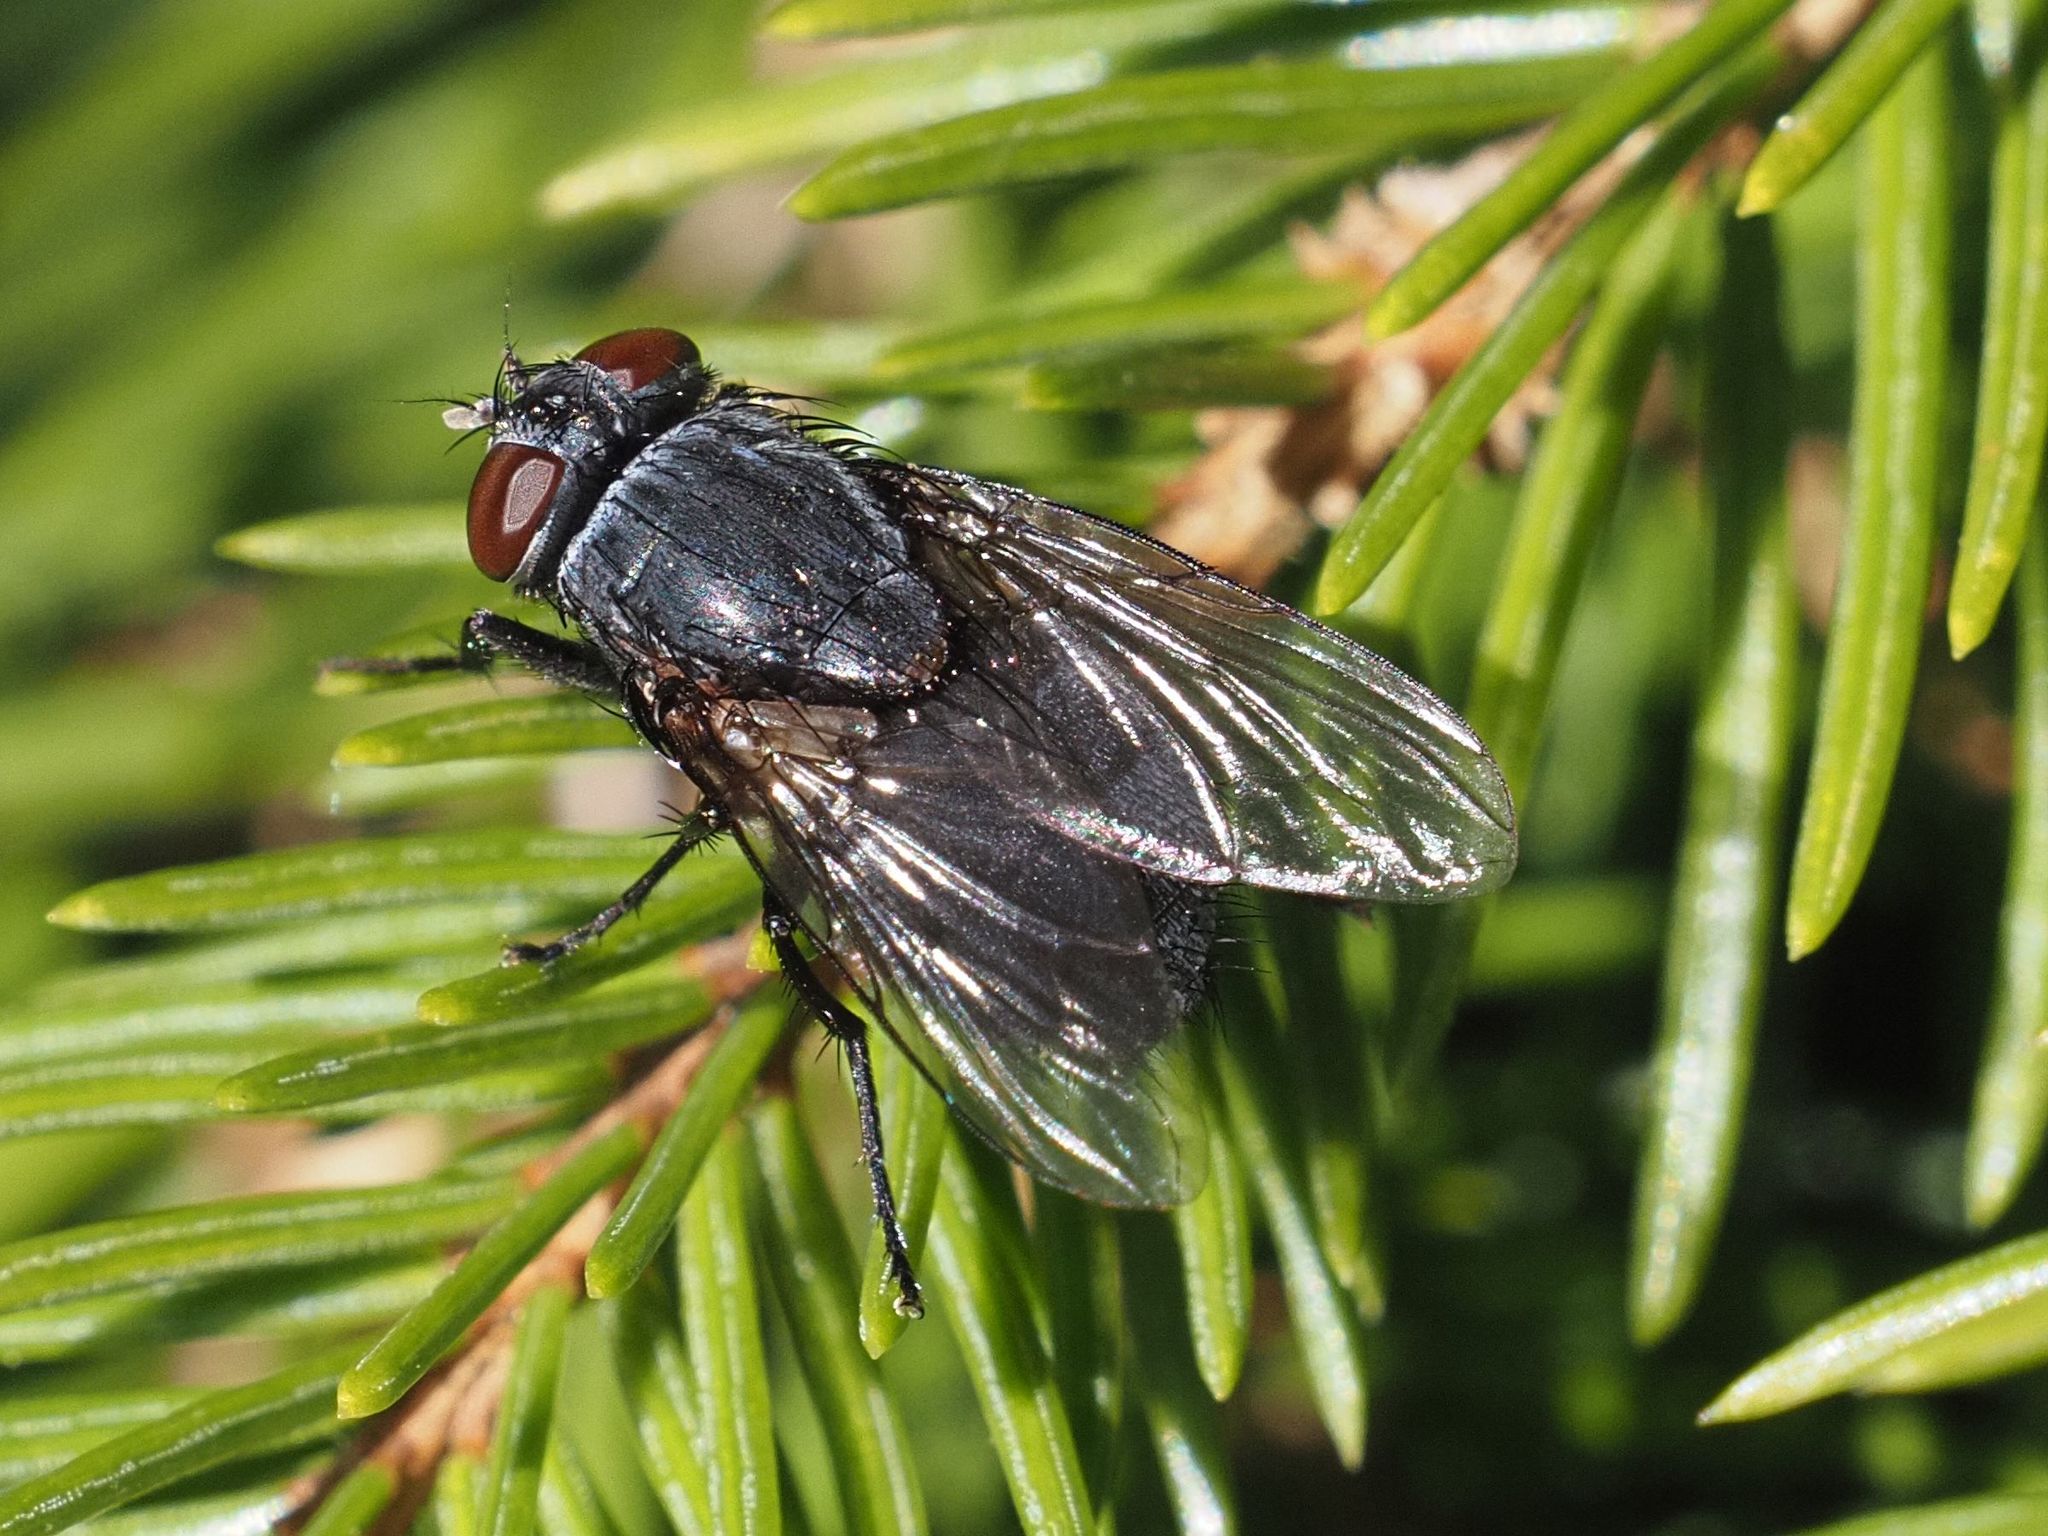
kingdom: Animalia
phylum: Arthropoda
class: Insecta
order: Diptera
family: Muscidae
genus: Muscina
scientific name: Muscina pascuorum
